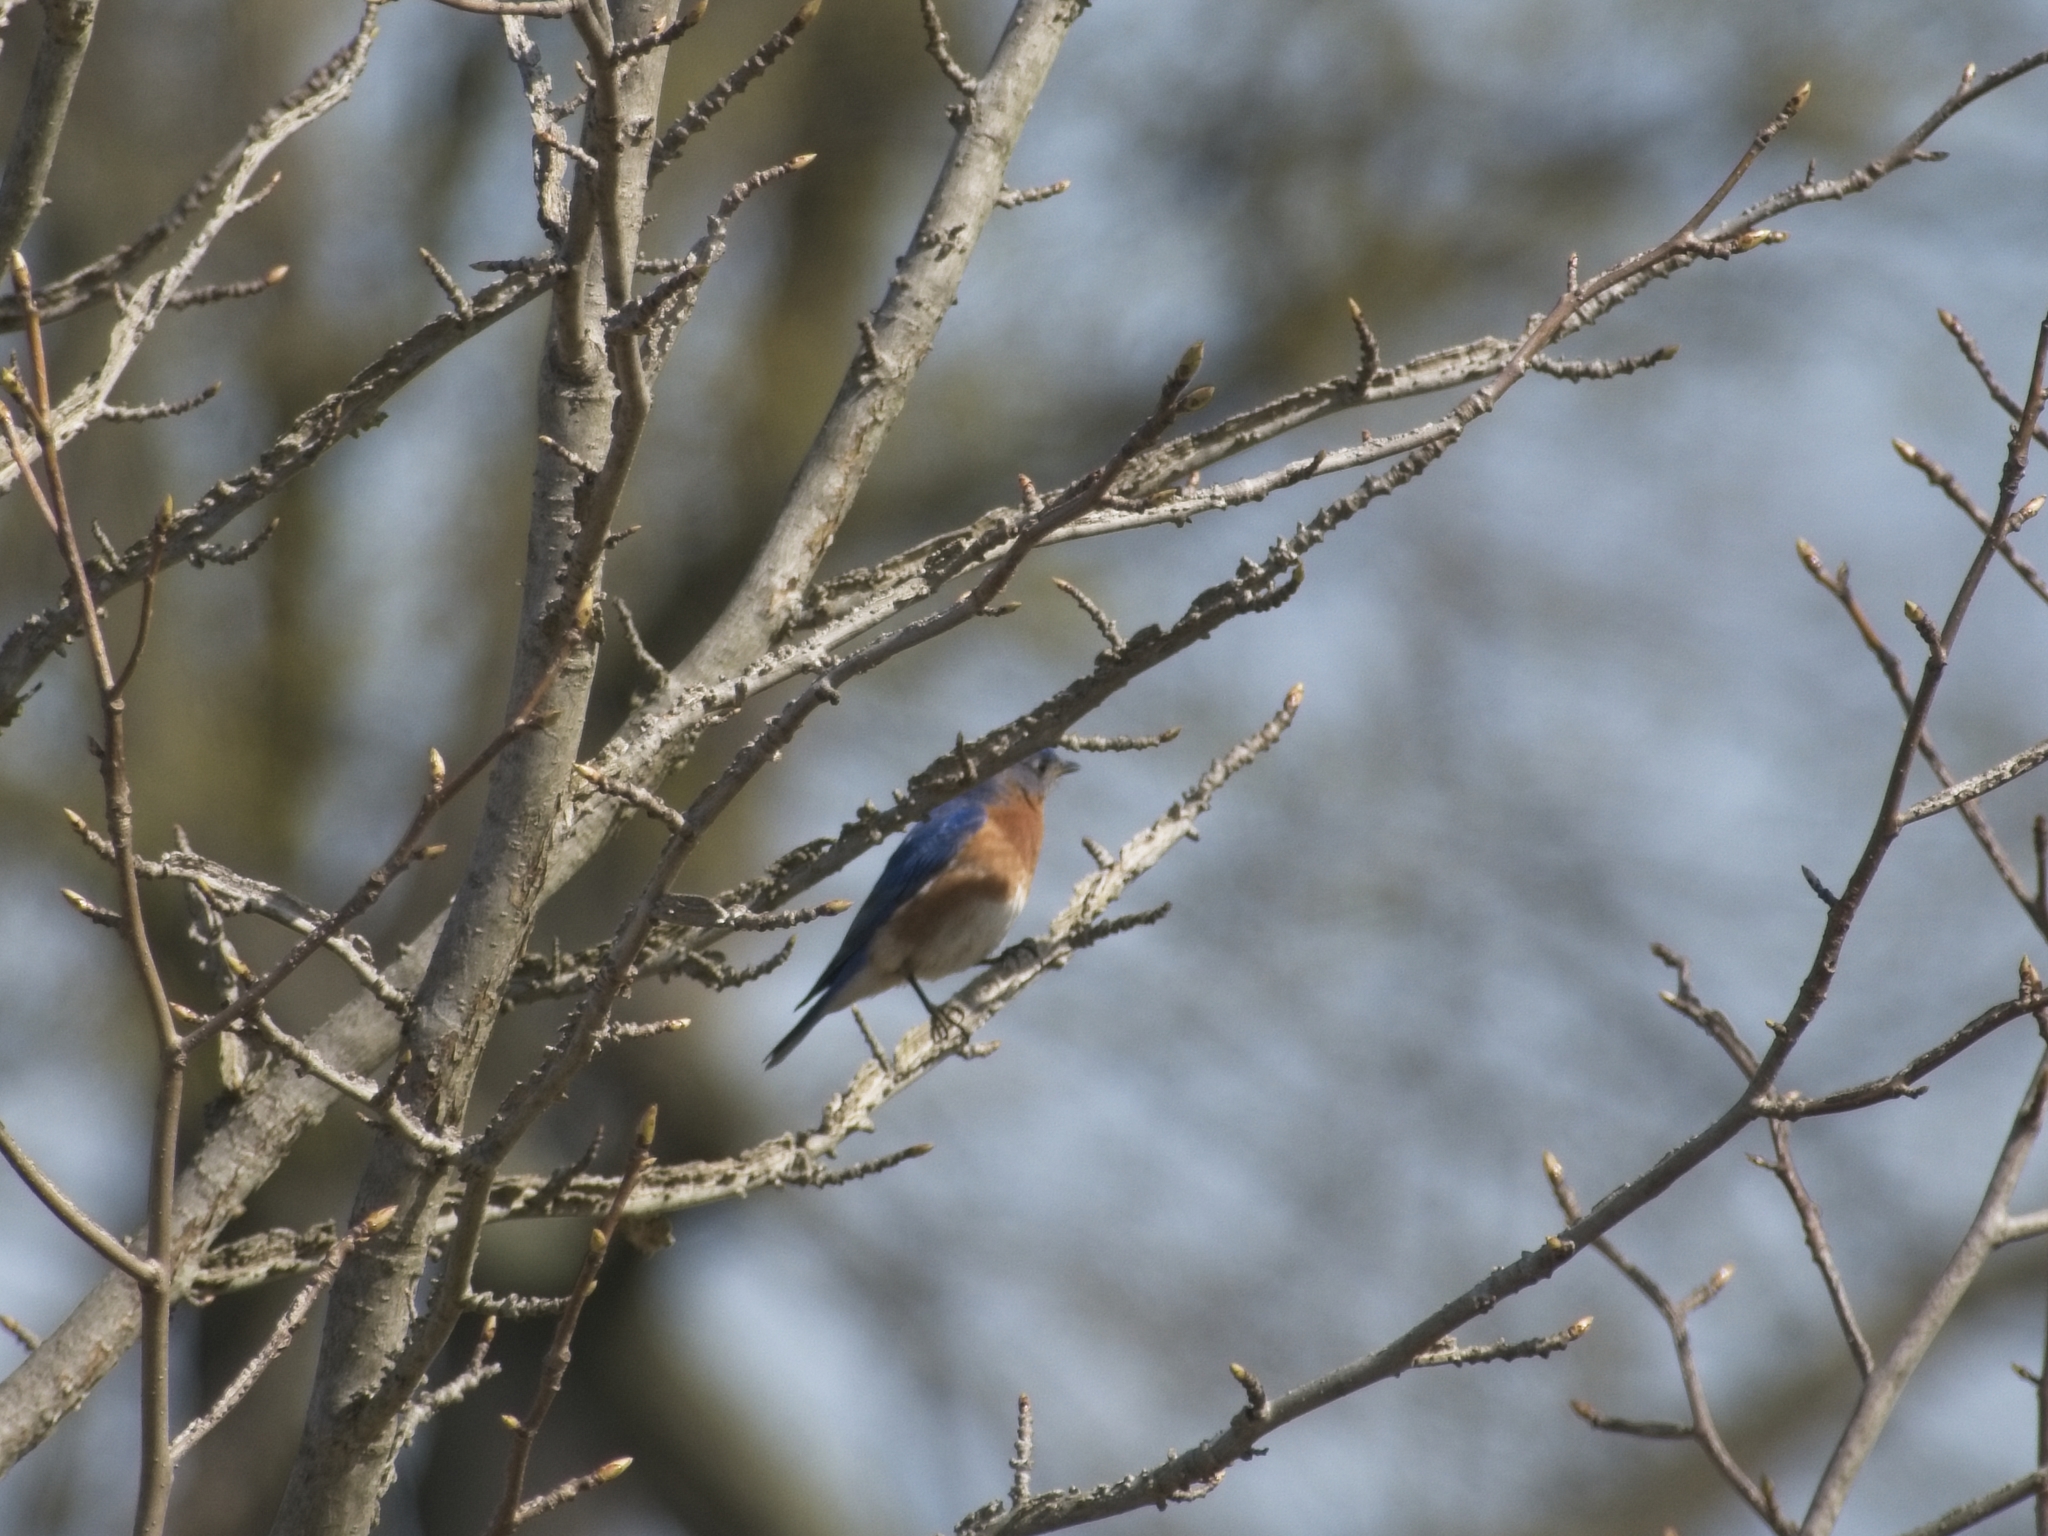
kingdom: Animalia
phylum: Chordata
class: Aves
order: Passeriformes
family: Turdidae
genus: Sialia
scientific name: Sialia sialis
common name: Eastern bluebird
